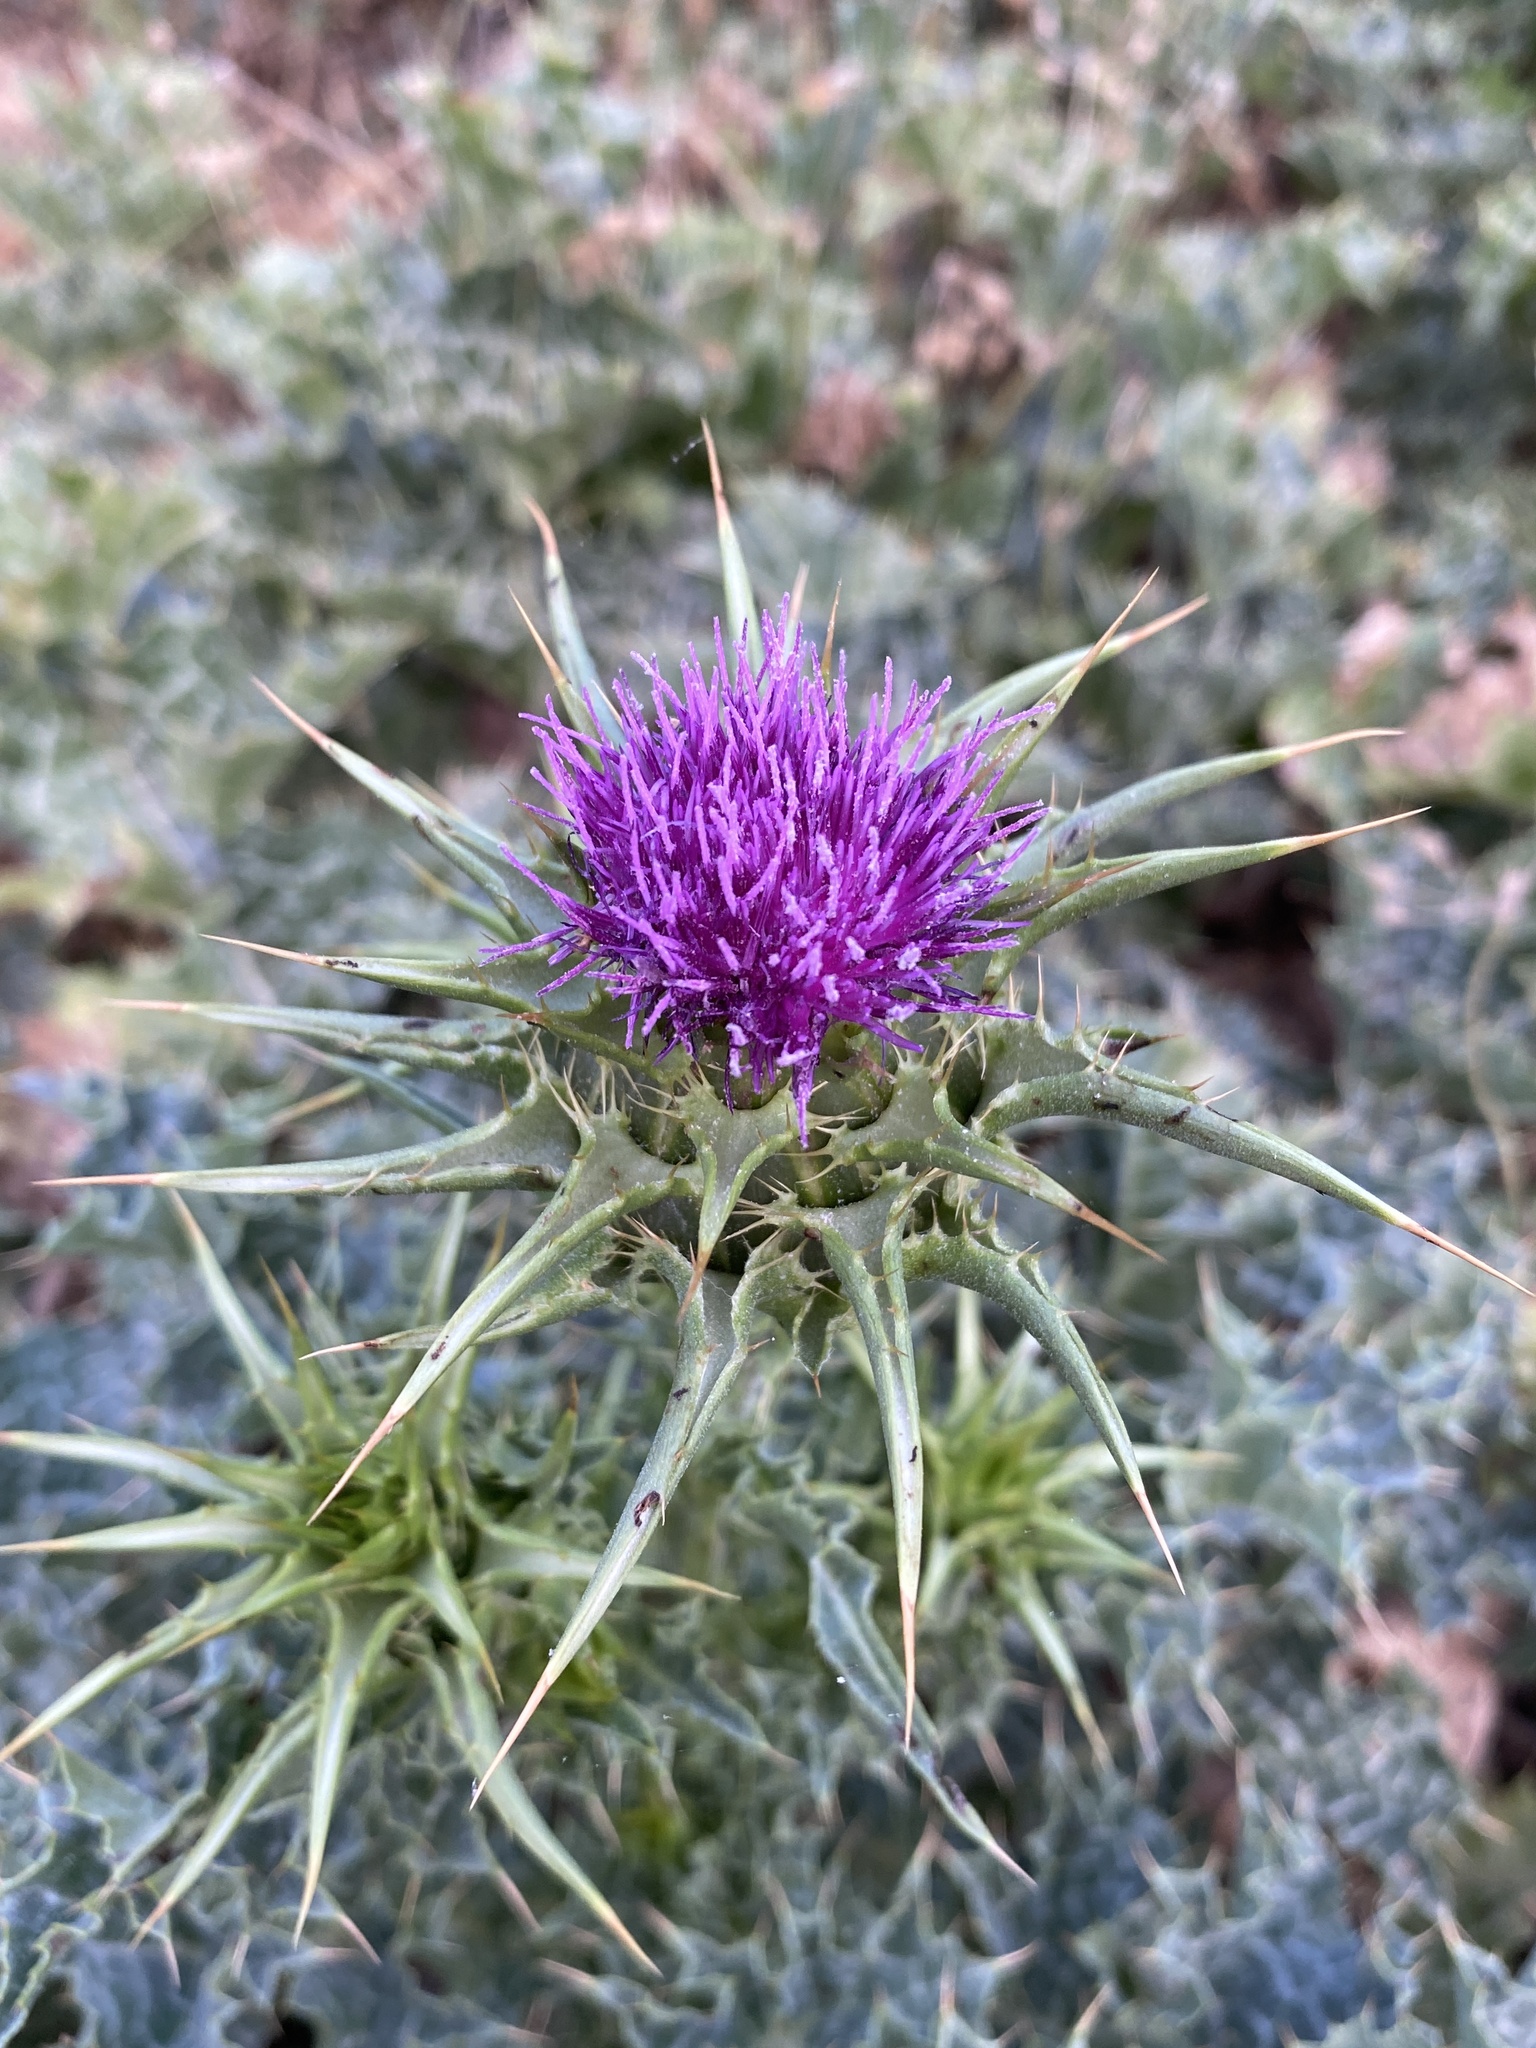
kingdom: Plantae
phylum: Tracheophyta
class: Magnoliopsida
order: Asterales
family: Asteraceae
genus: Silybum
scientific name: Silybum marianum
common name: Milk thistle
